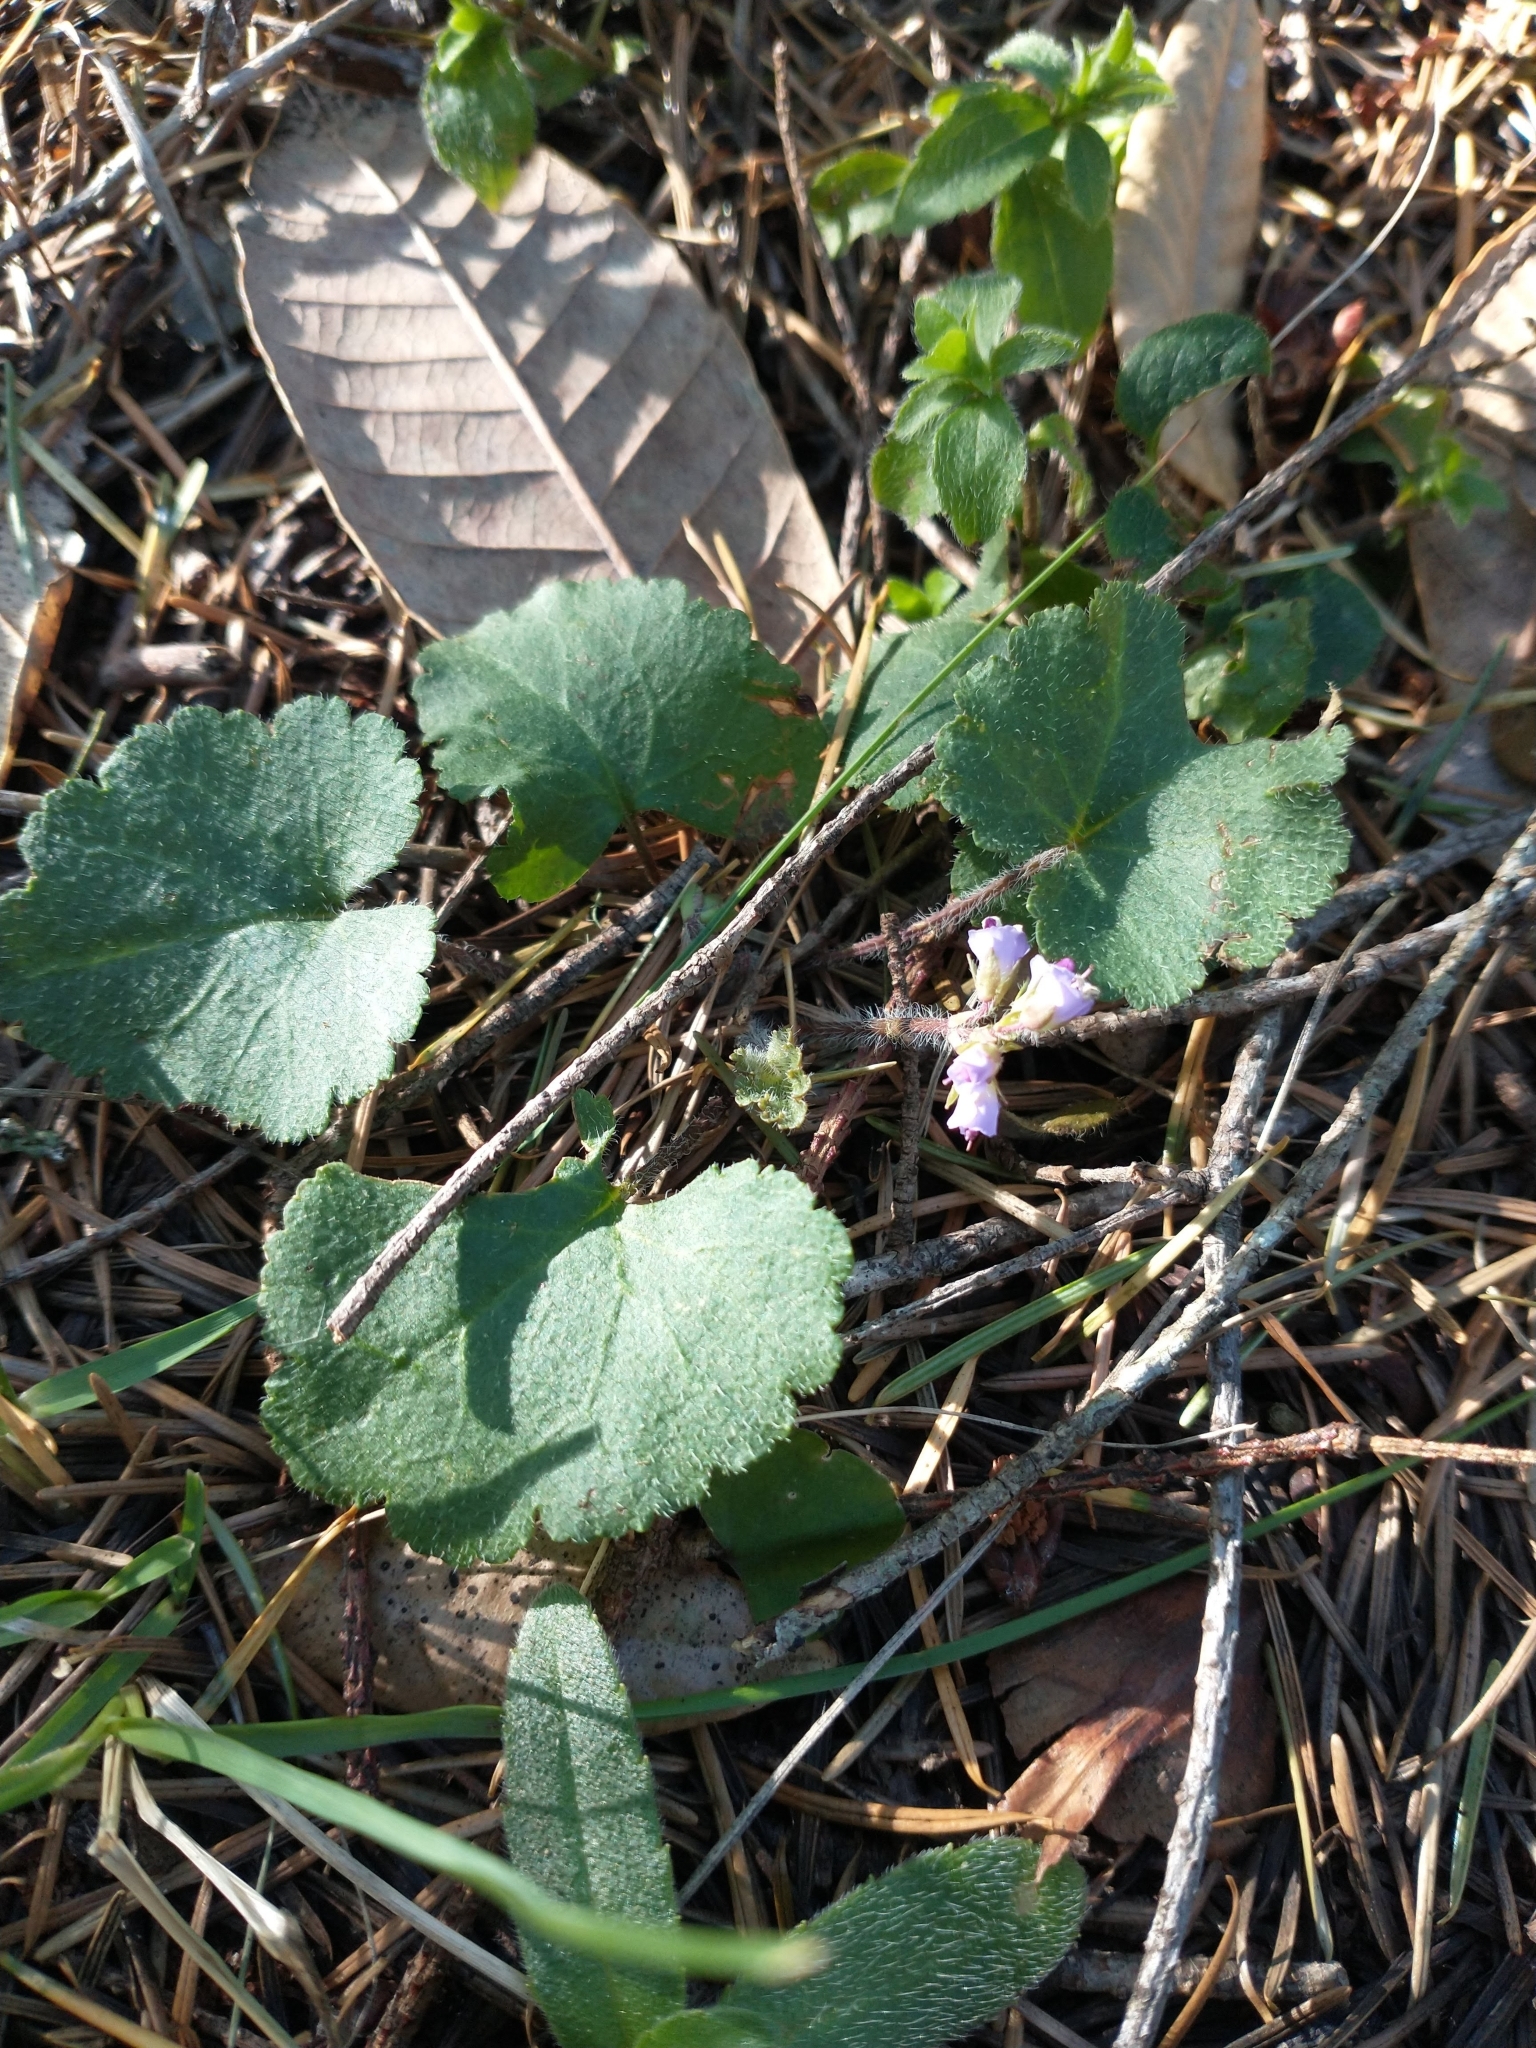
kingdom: Plantae
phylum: Tracheophyta
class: Magnoliopsida
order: Lamiales
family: Plantaginaceae
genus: Synthyris
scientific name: Synthyris reniformis
